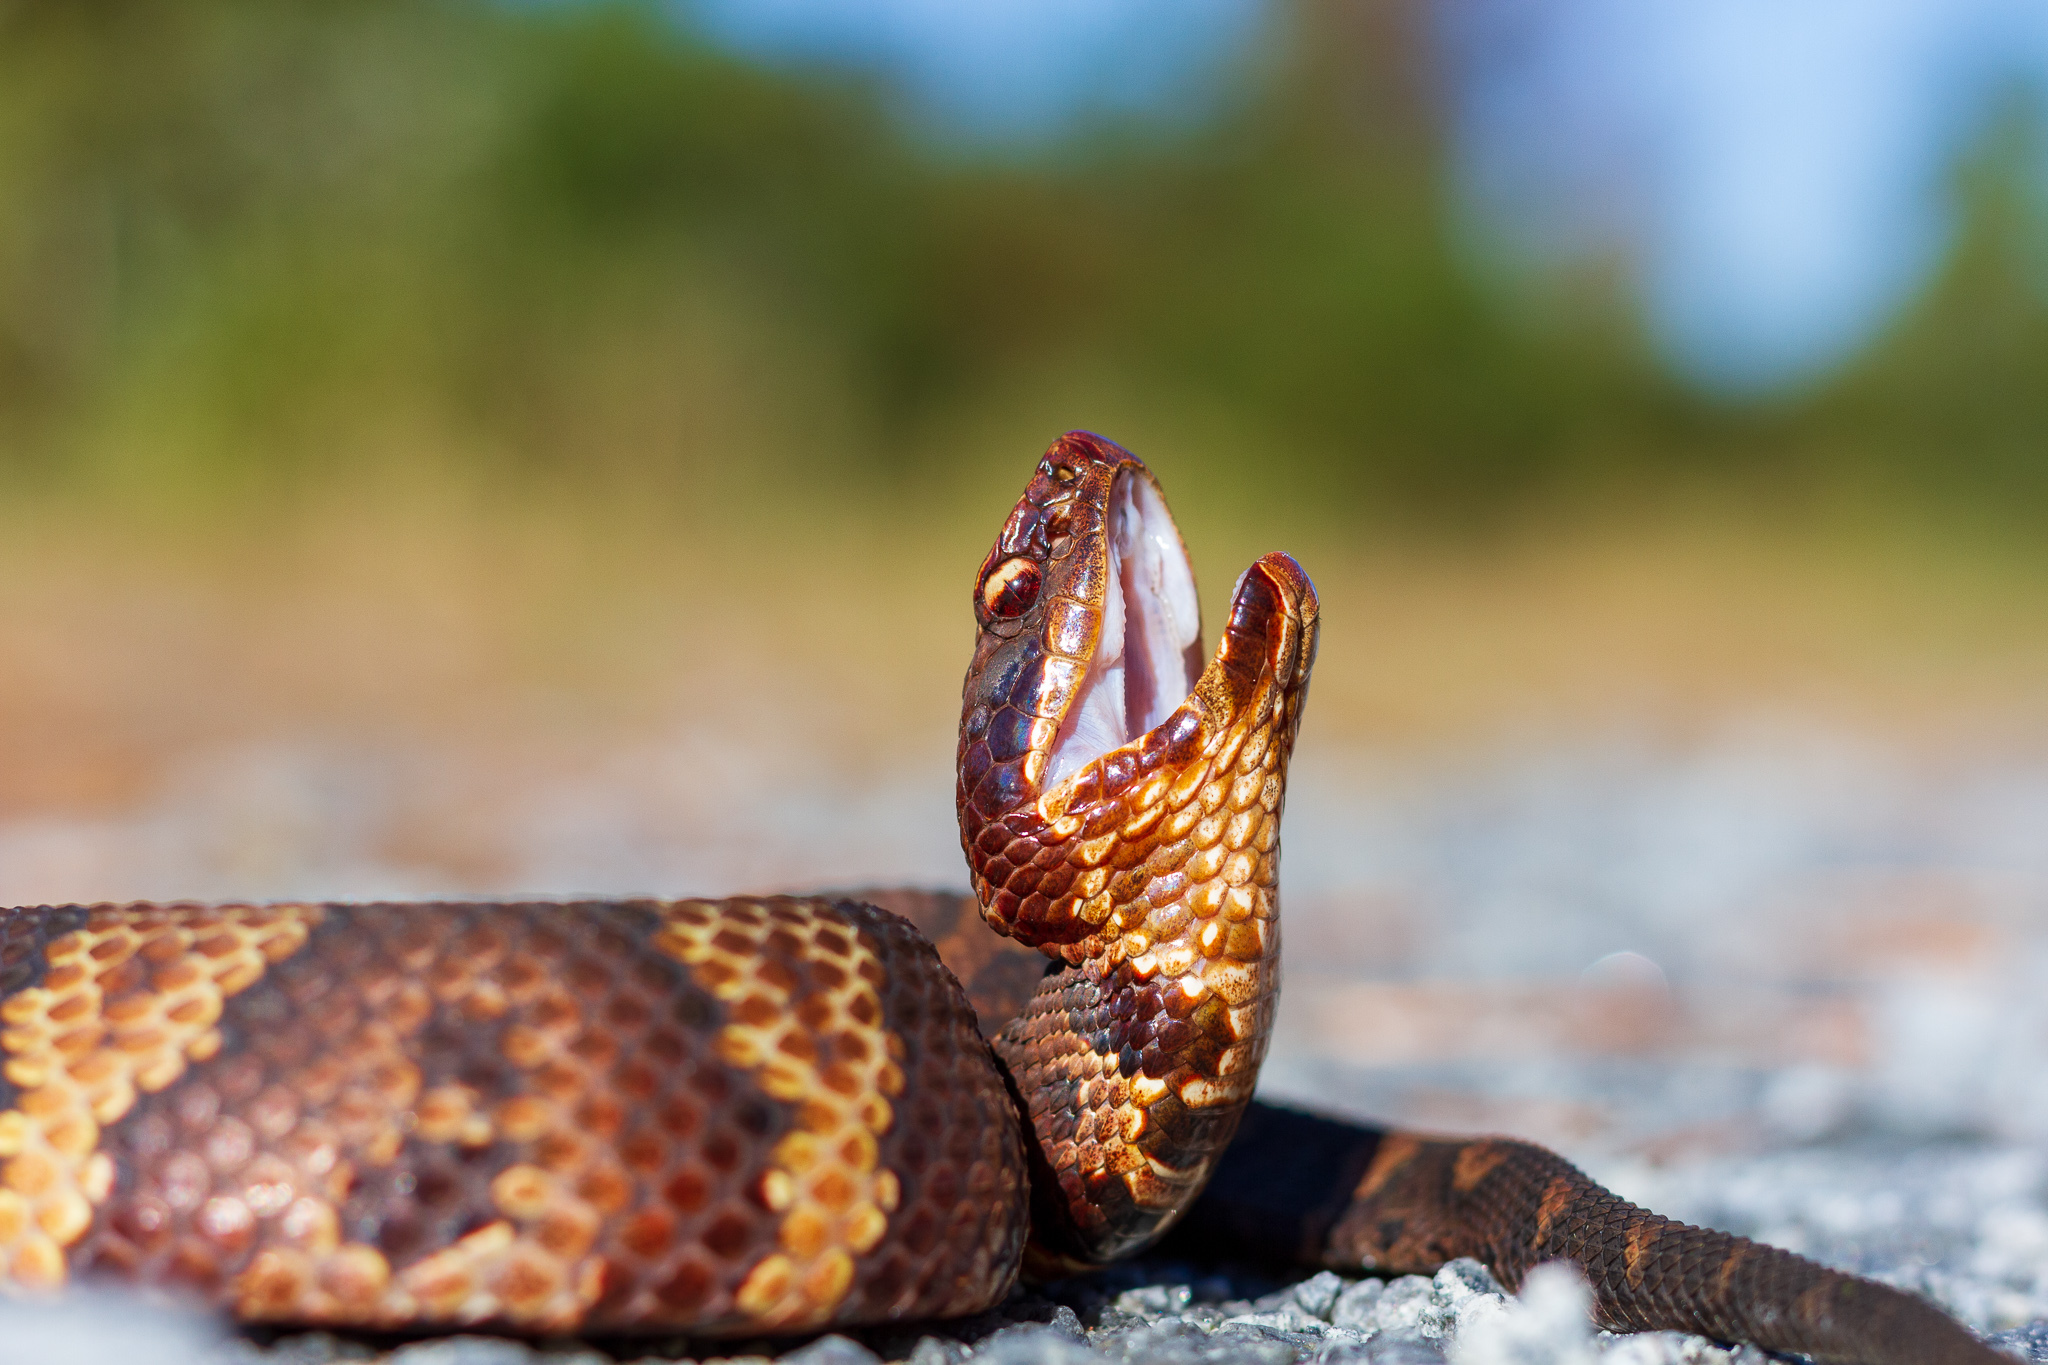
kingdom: Animalia
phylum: Chordata
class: Squamata
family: Viperidae
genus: Agkistrodon
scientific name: Agkistrodon piscivorus
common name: Cottonmouth
